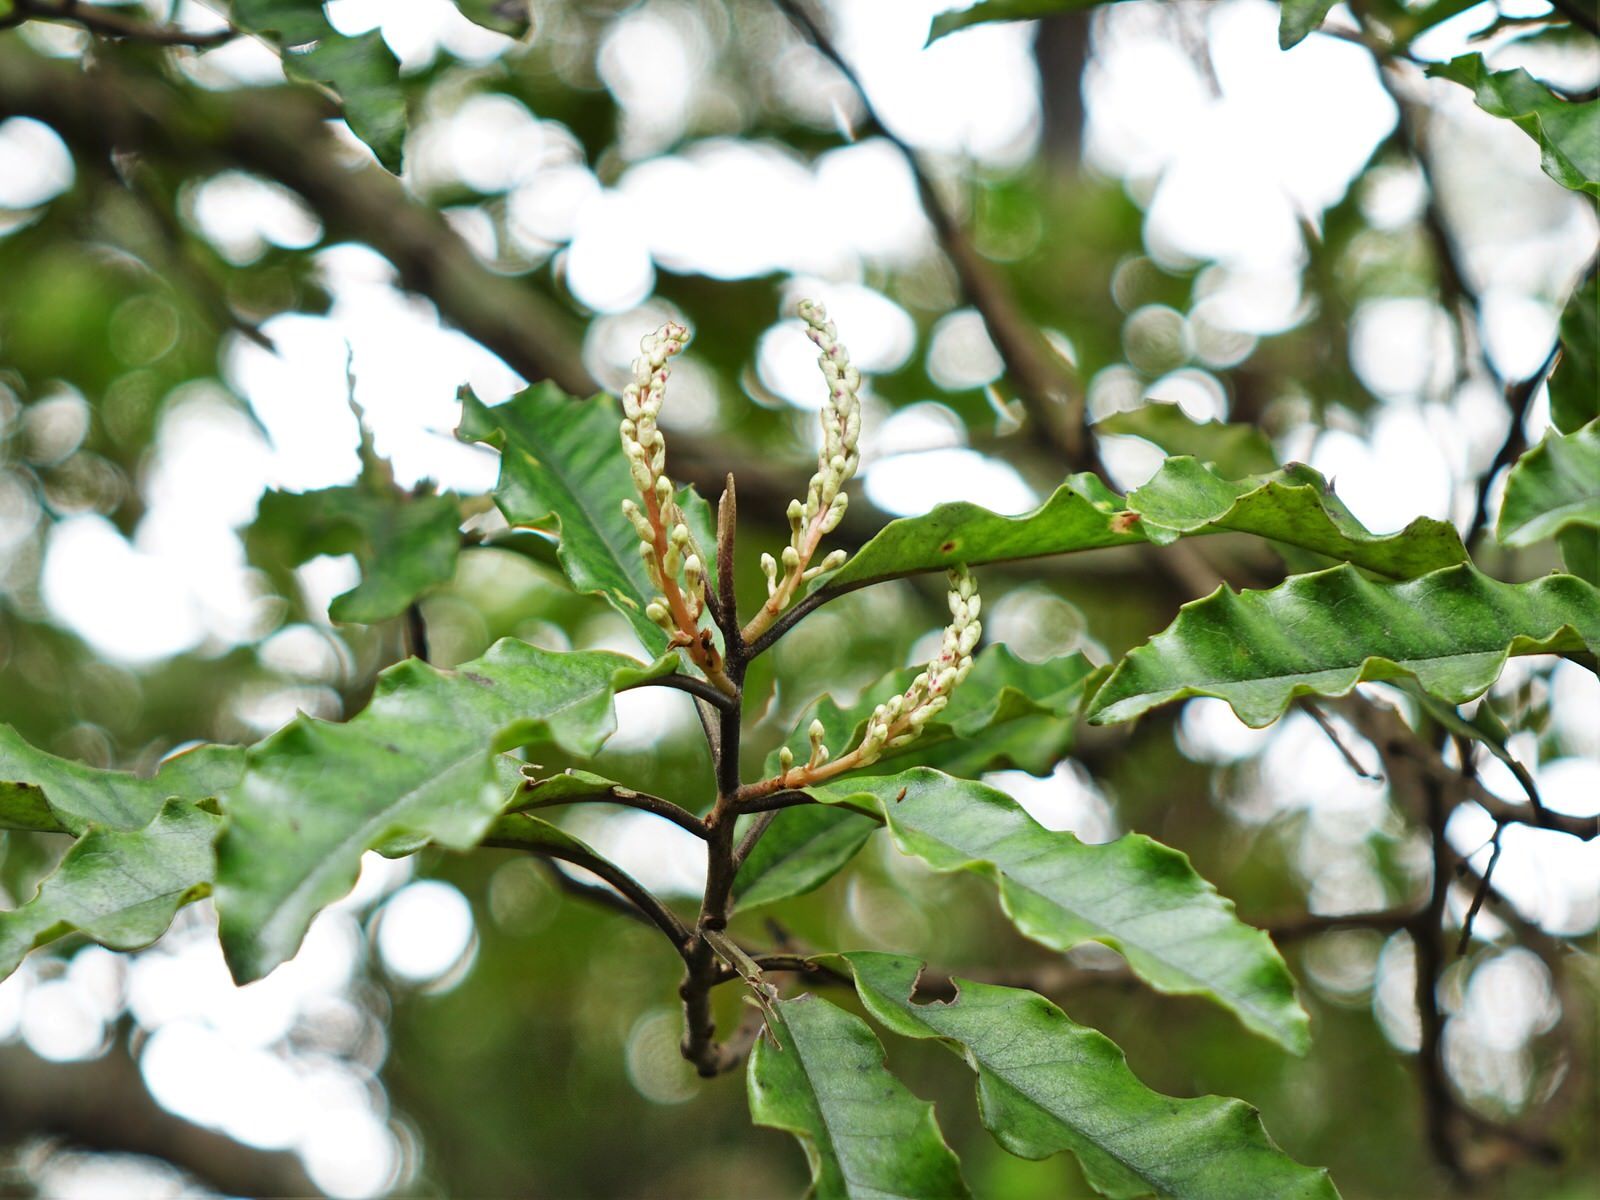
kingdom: Plantae
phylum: Tracheophyta
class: Magnoliopsida
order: Paracryphiales
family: Paracryphiaceae
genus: Quintinia
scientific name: Quintinia serrata
